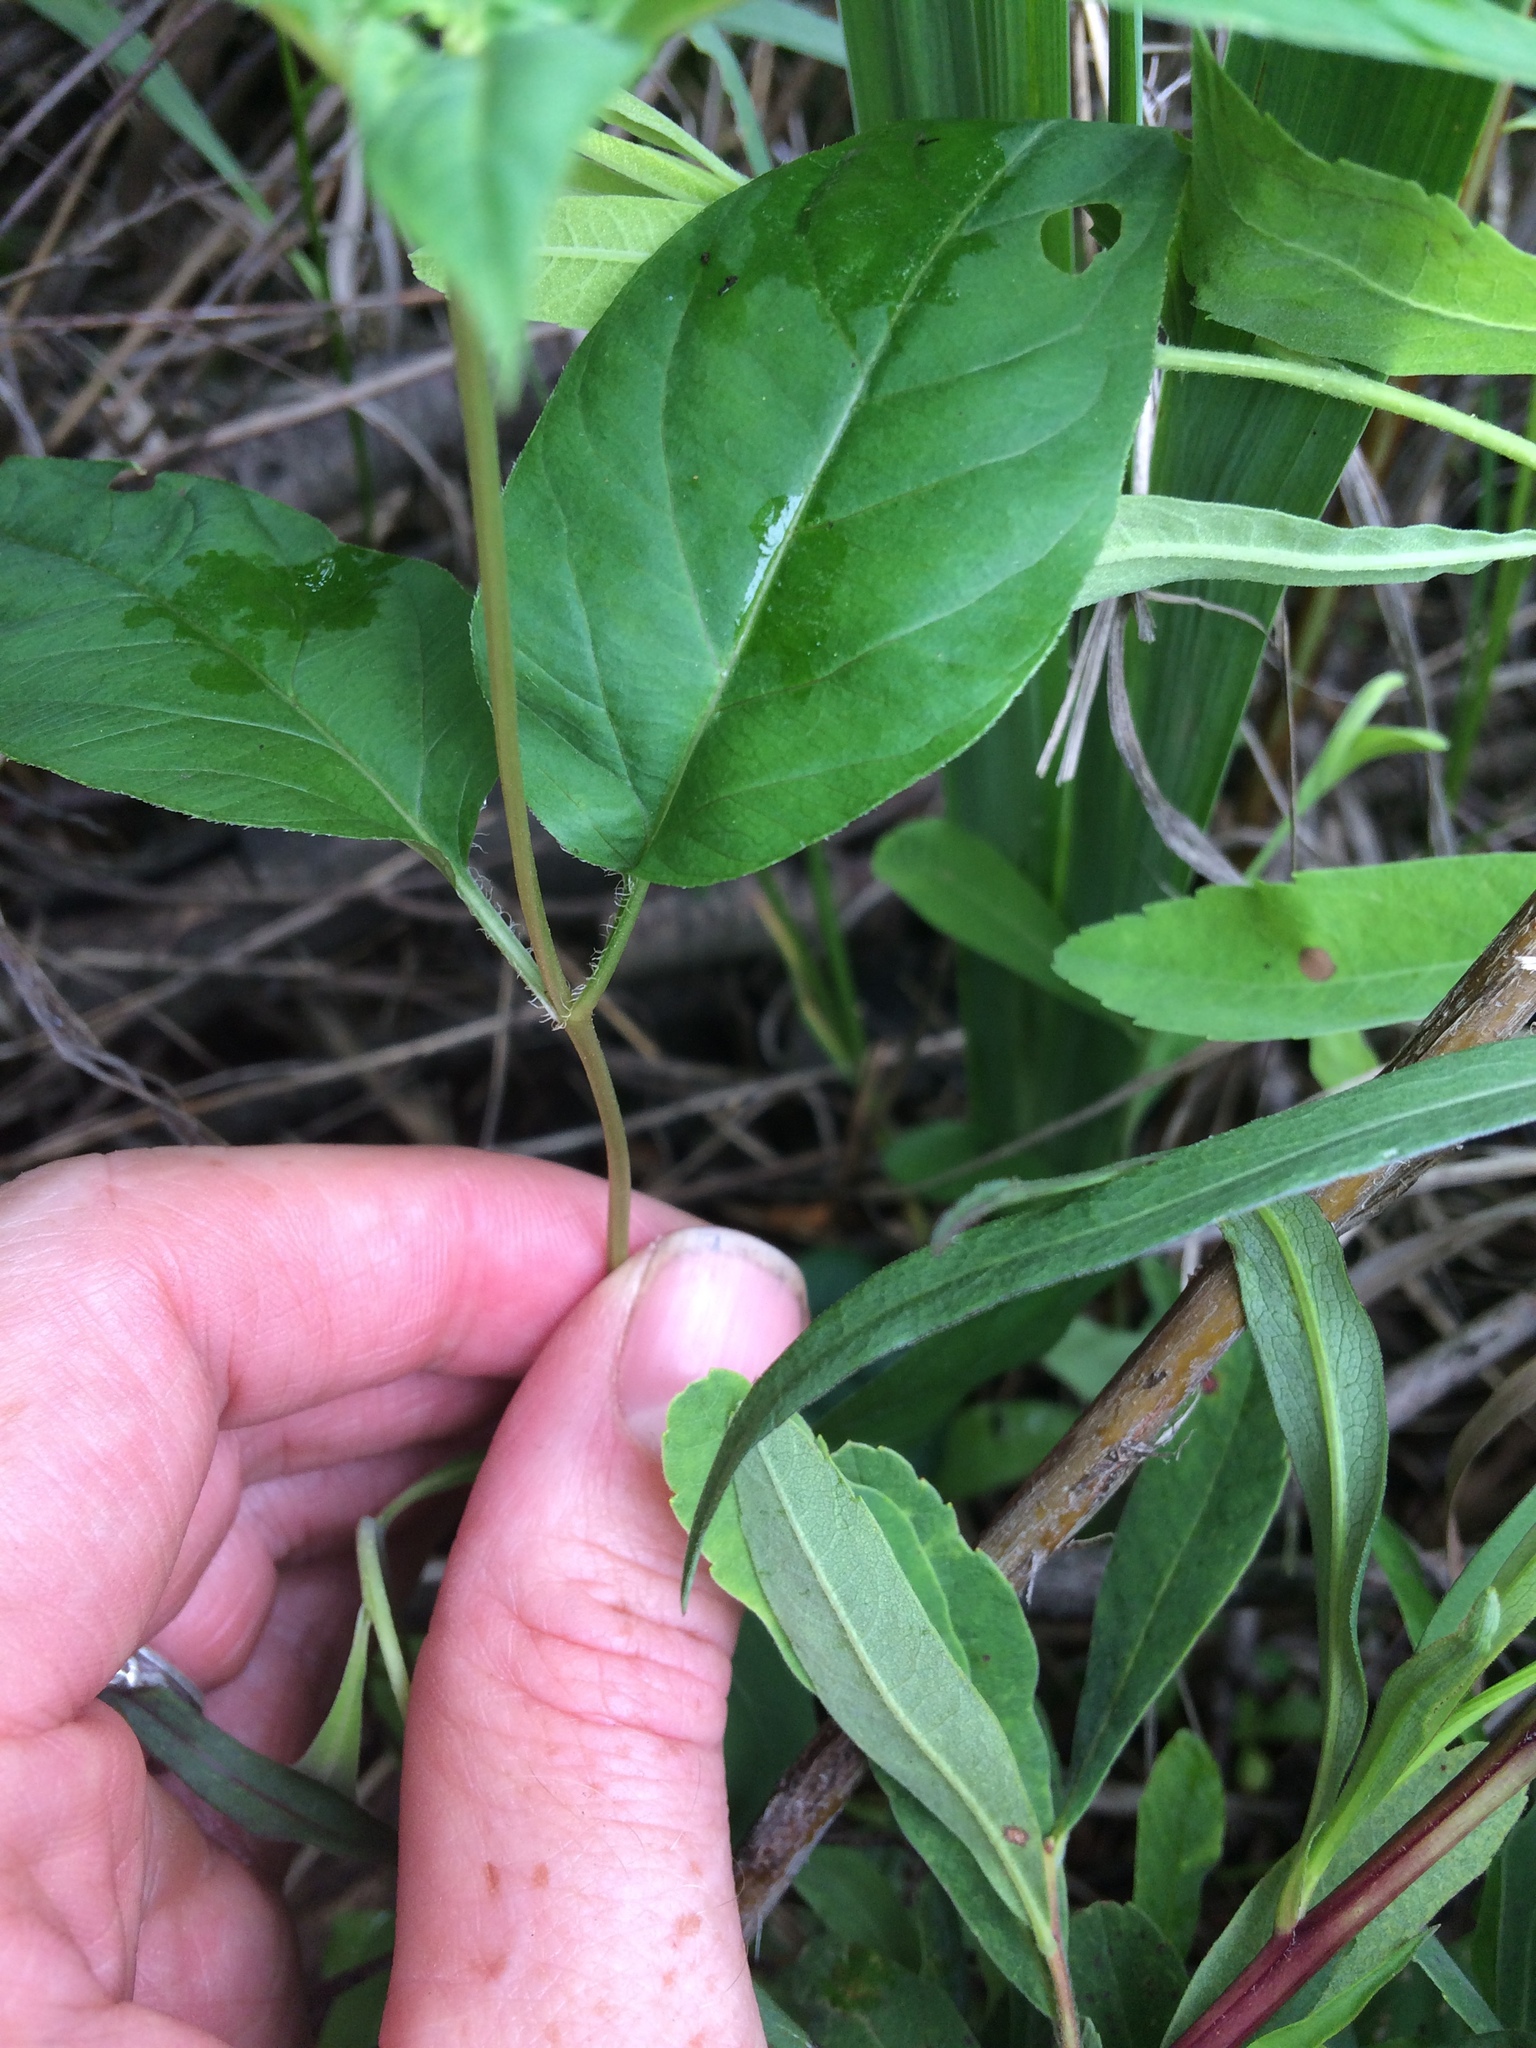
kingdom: Plantae
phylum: Tracheophyta
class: Magnoliopsida
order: Ericales
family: Primulaceae
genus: Lysimachia
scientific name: Lysimachia ciliata
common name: Fringed loosestrife
